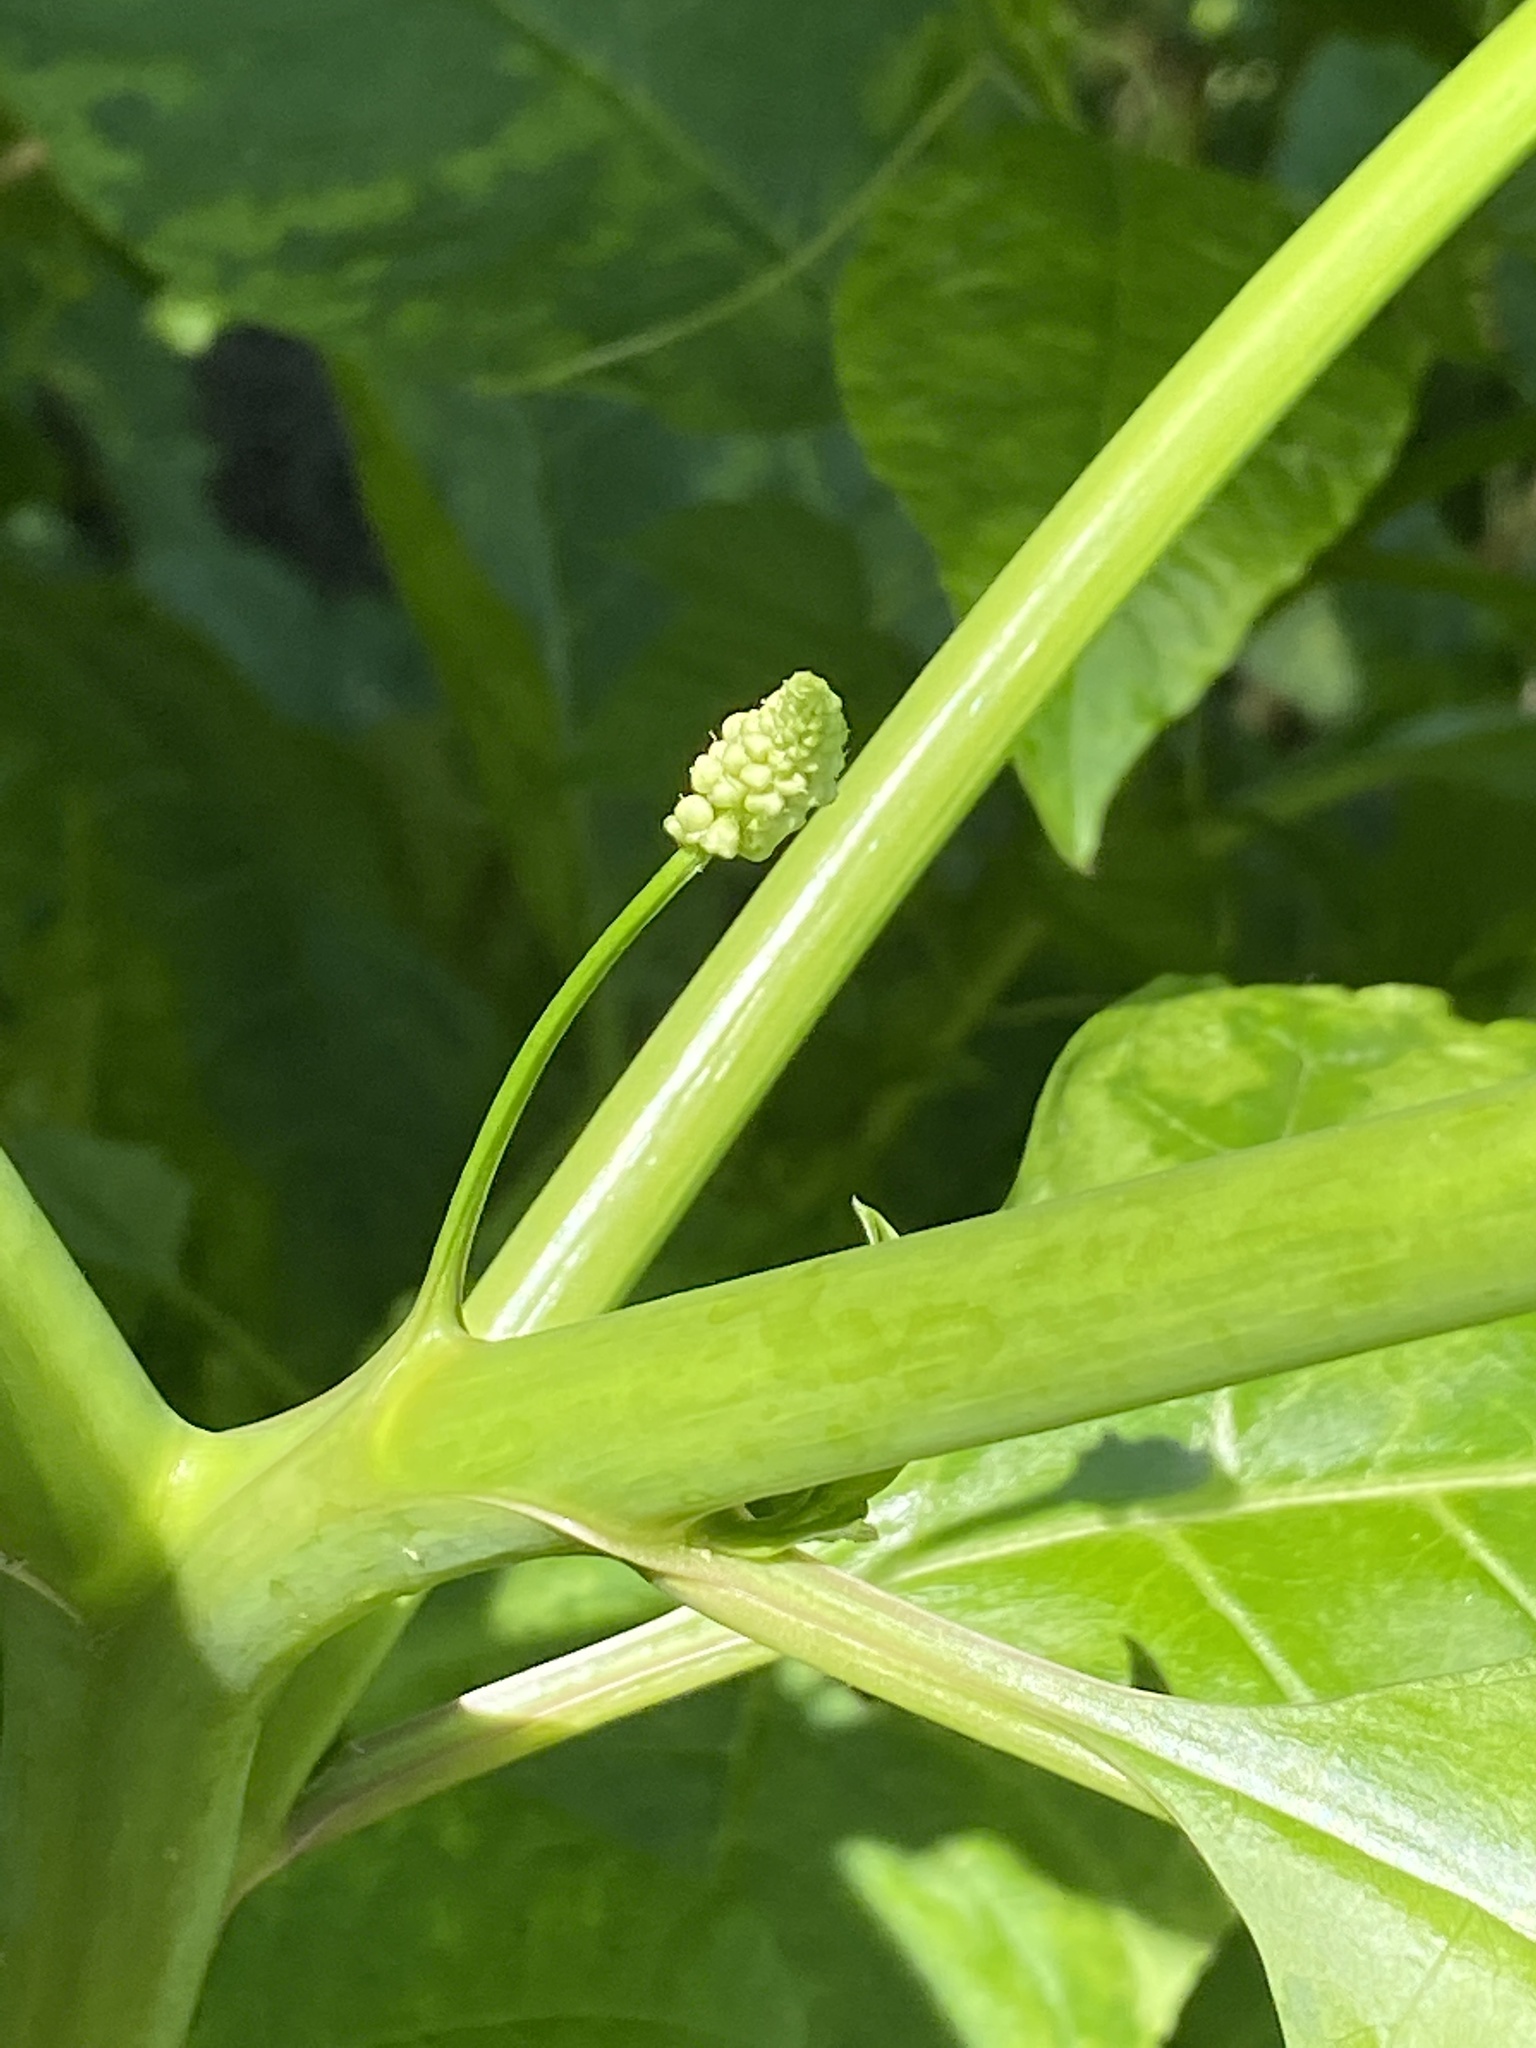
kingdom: Plantae
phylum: Tracheophyta
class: Magnoliopsida
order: Caryophyllales
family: Phytolaccaceae
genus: Phytolacca
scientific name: Phytolacca americana
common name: American pokeweed
